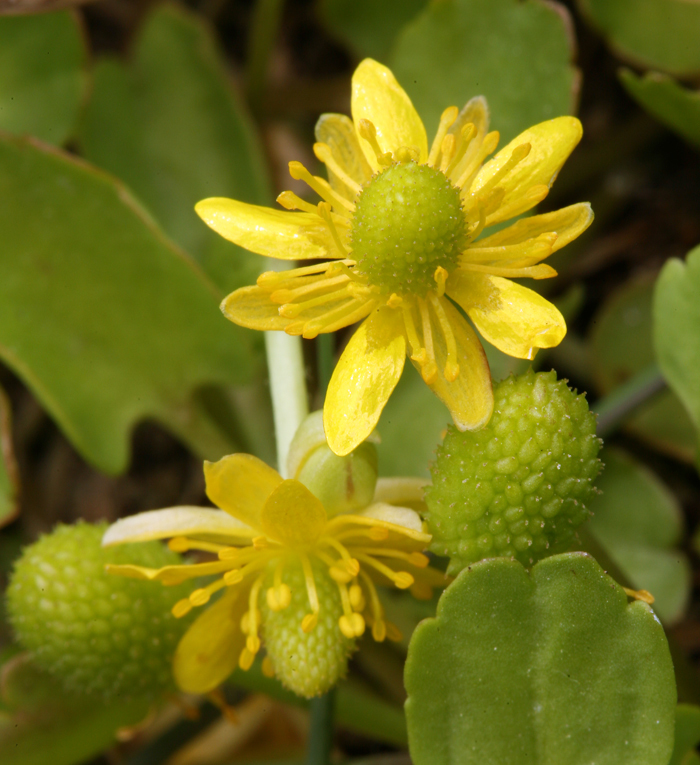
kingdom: Plantae
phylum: Tracheophyta
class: Magnoliopsida
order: Ranunculales
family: Ranunculaceae
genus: Halerpestes
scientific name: Halerpestes cymbalaria
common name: Seaside crowfoot
